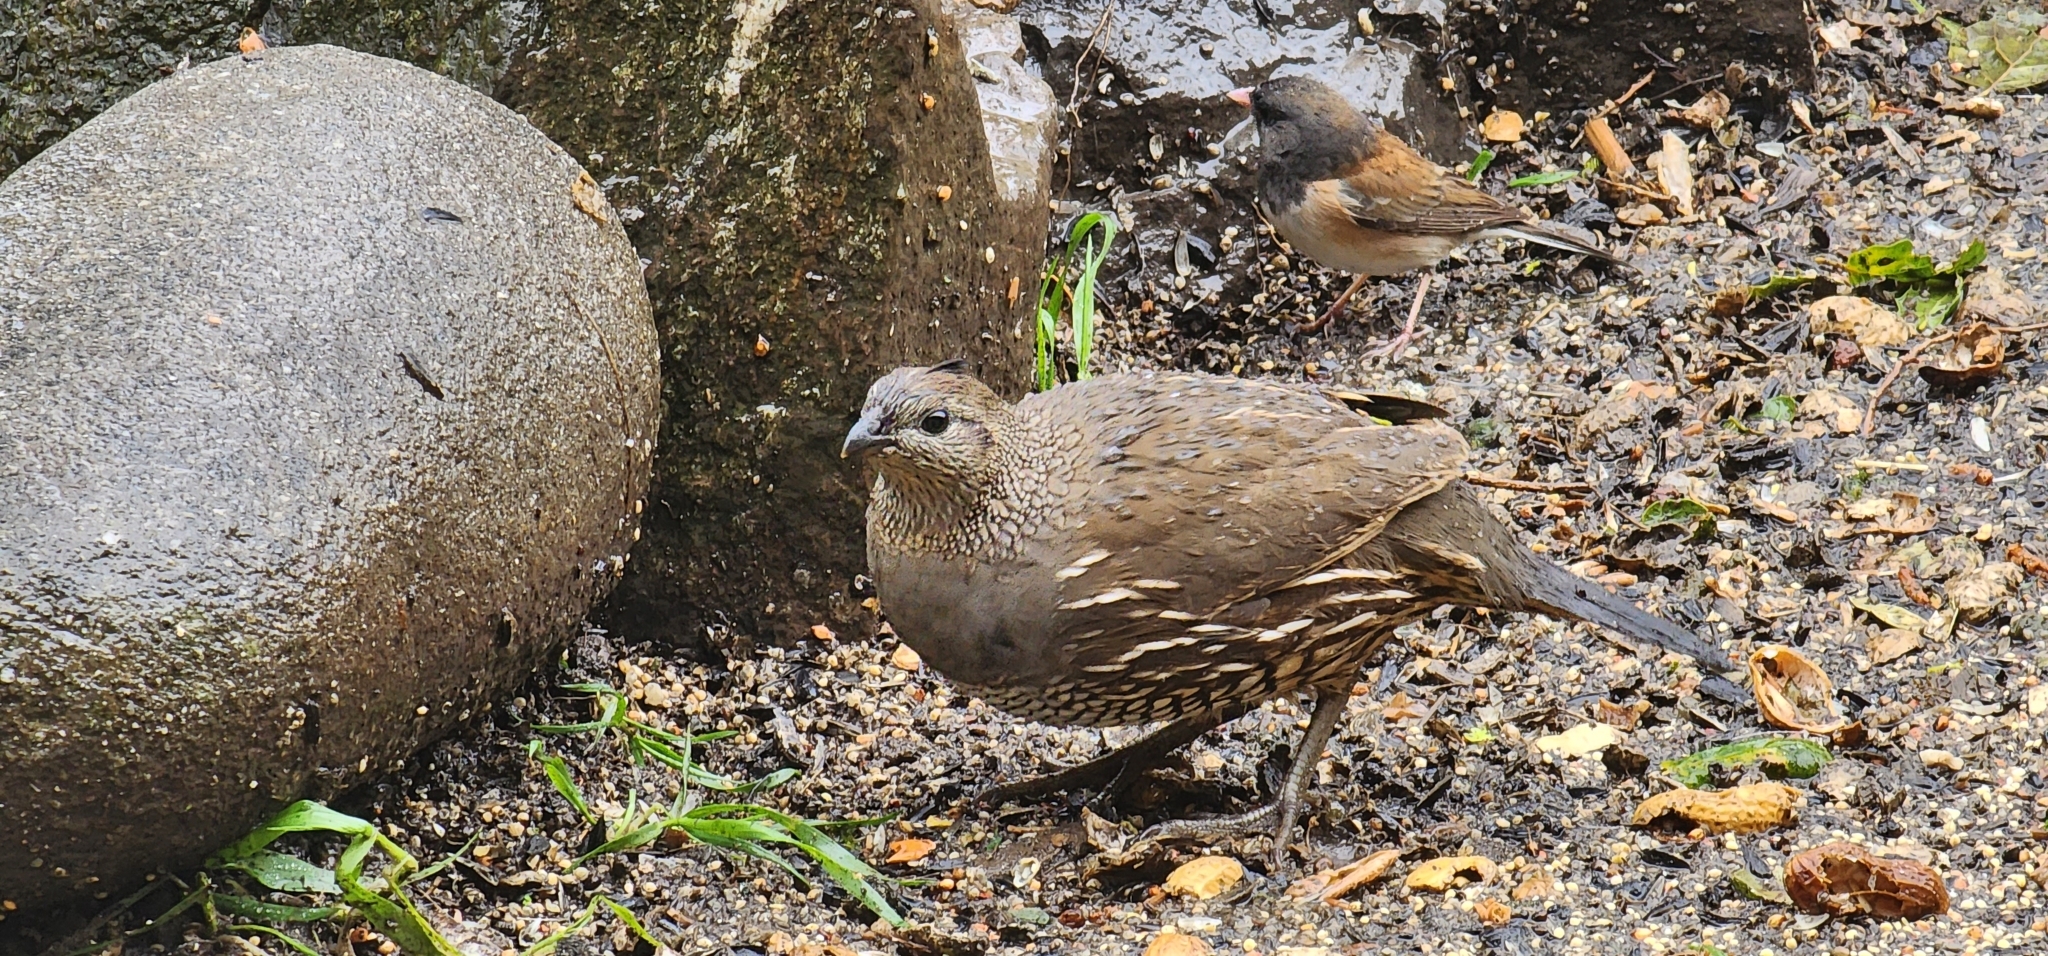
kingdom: Animalia
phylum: Chordata
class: Aves
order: Galliformes
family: Odontophoridae
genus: Callipepla
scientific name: Callipepla californica
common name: California quail
